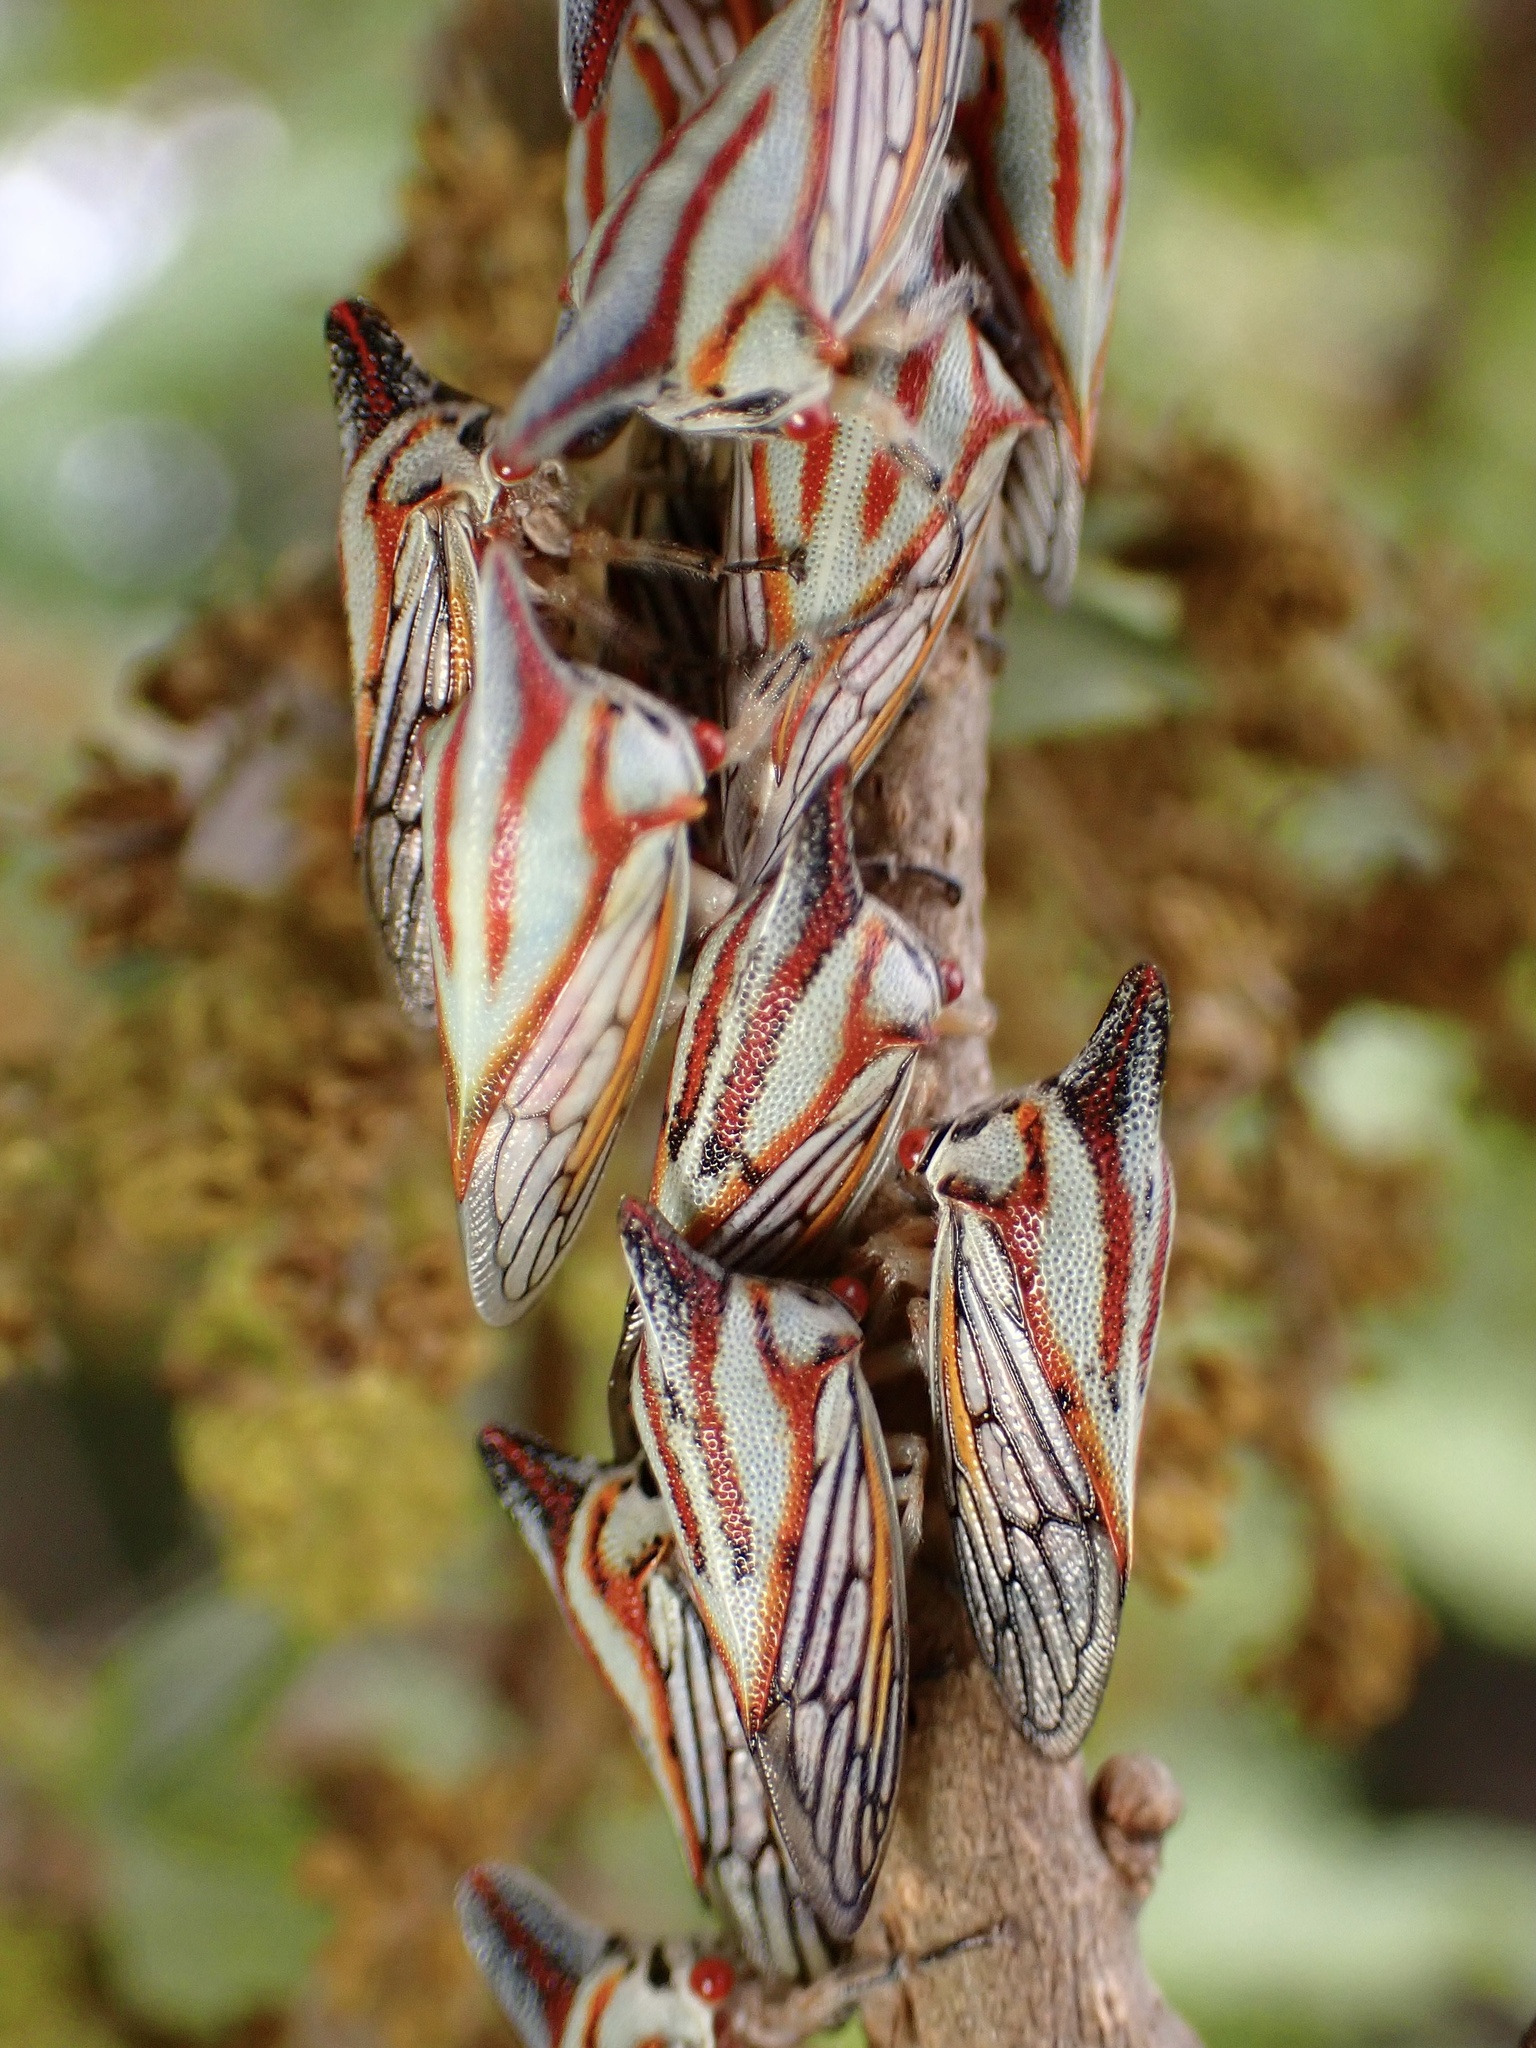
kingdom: Animalia
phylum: Arthropoda
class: Insecta
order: Hemiptera
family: Membracidae
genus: Platycotis
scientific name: Platycotis vittatus
